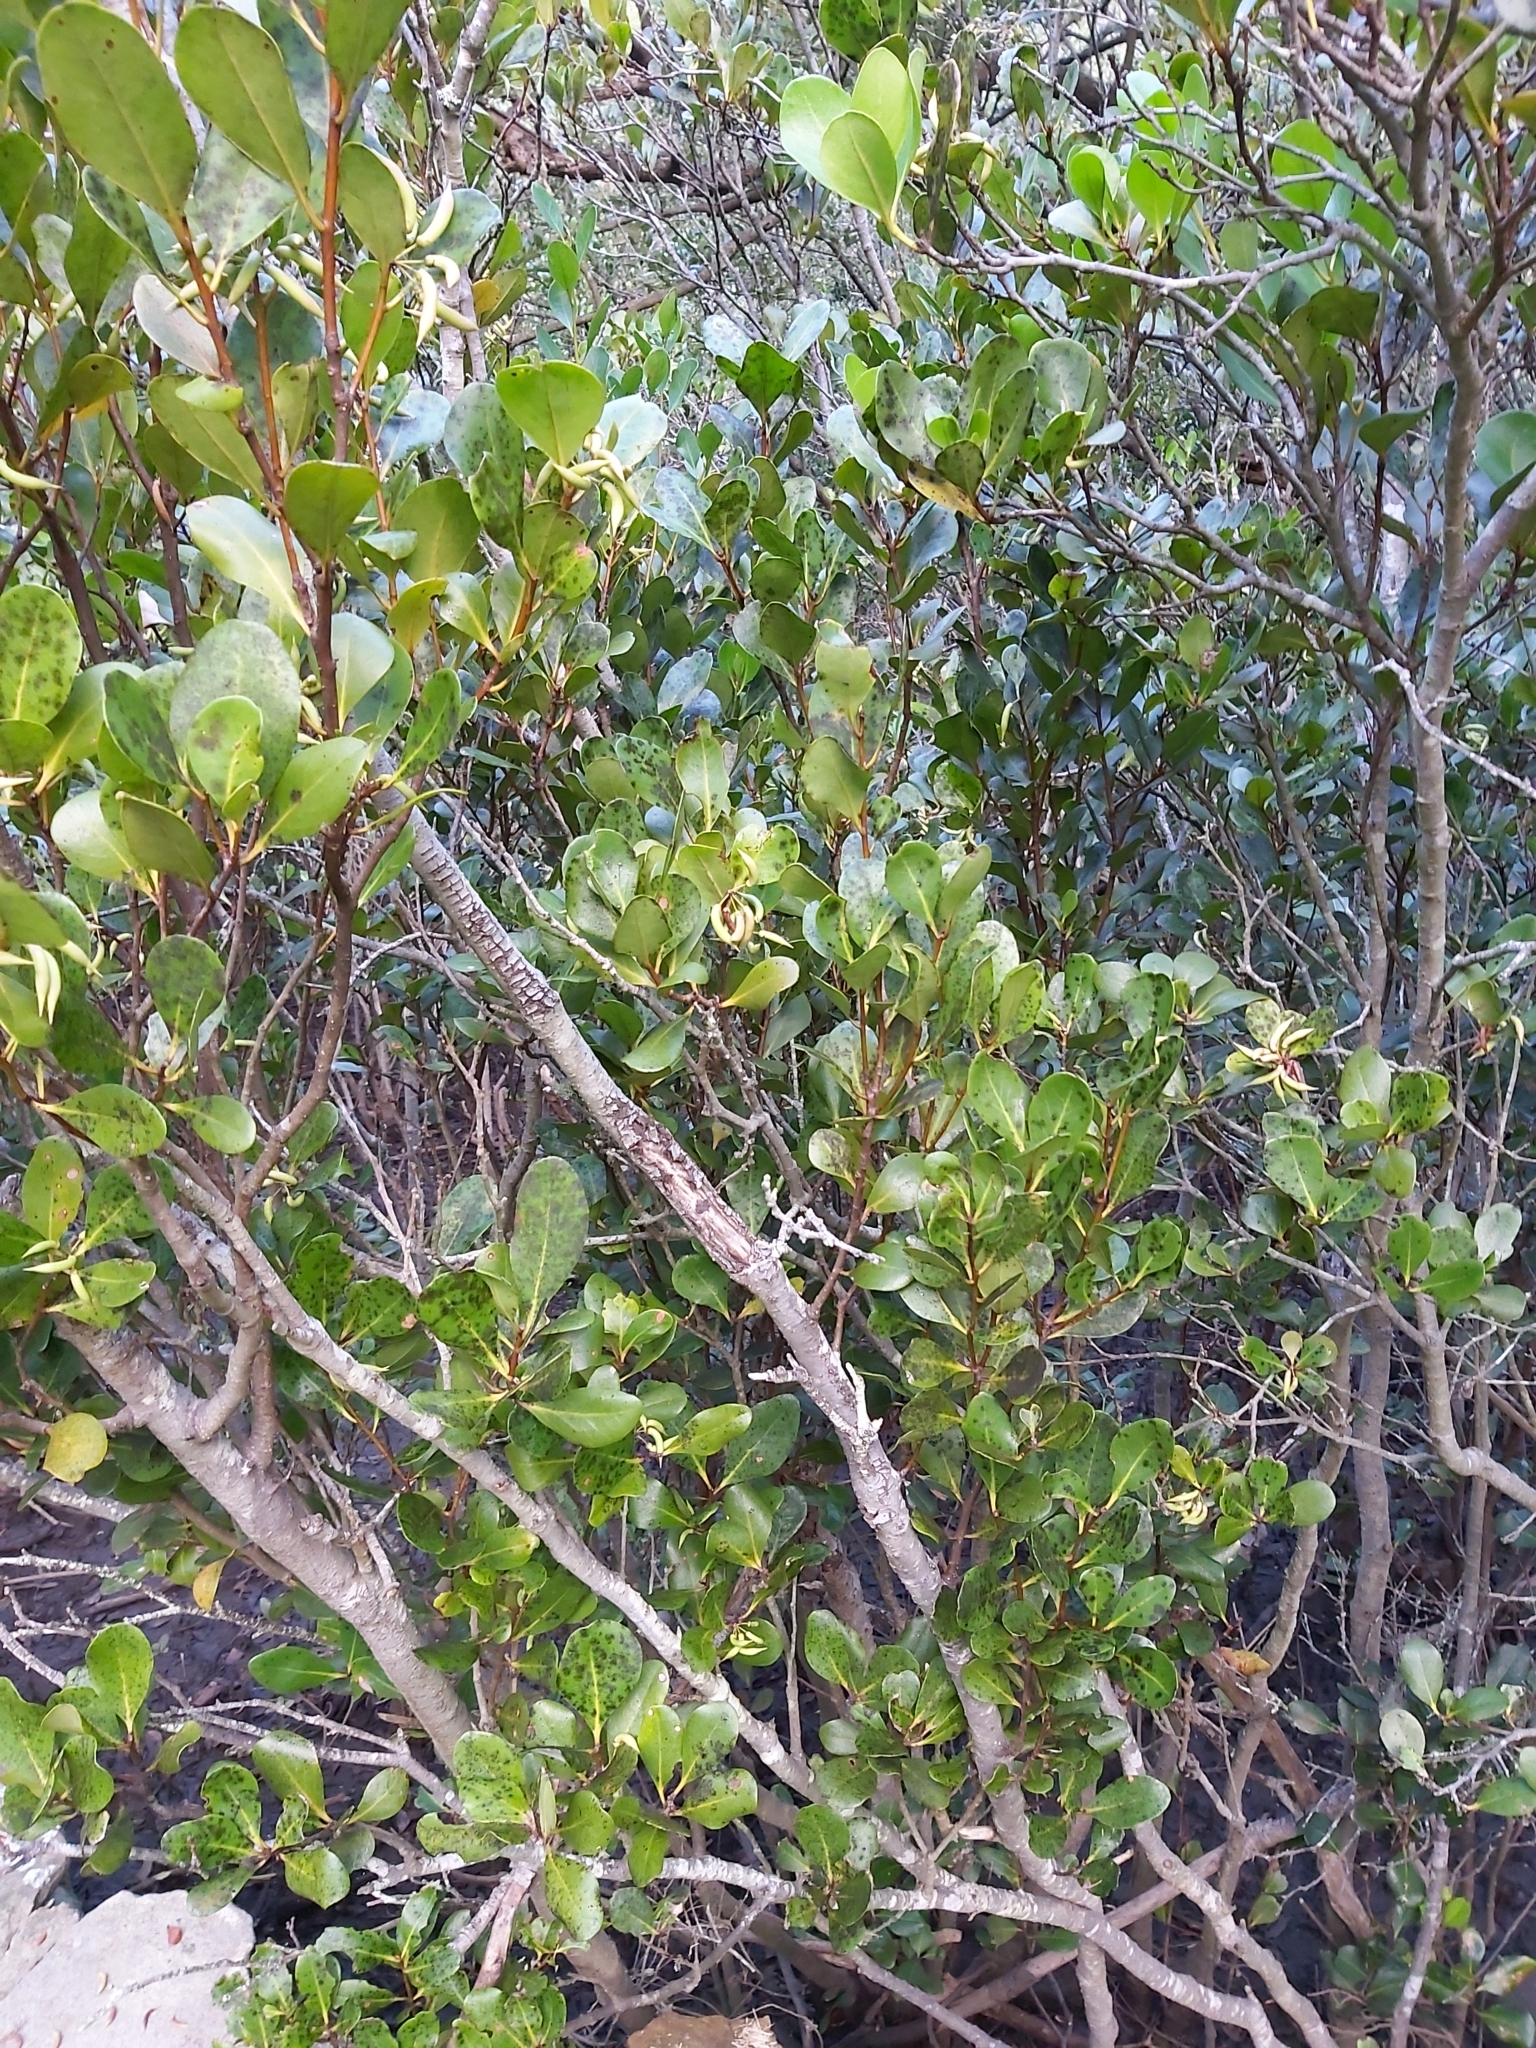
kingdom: Plantae
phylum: Tracheophyta
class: Magnoliopsida
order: Ericales
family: Primulaceae
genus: Aegiceras
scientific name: Aegiceras corniculatum
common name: River mangrove
